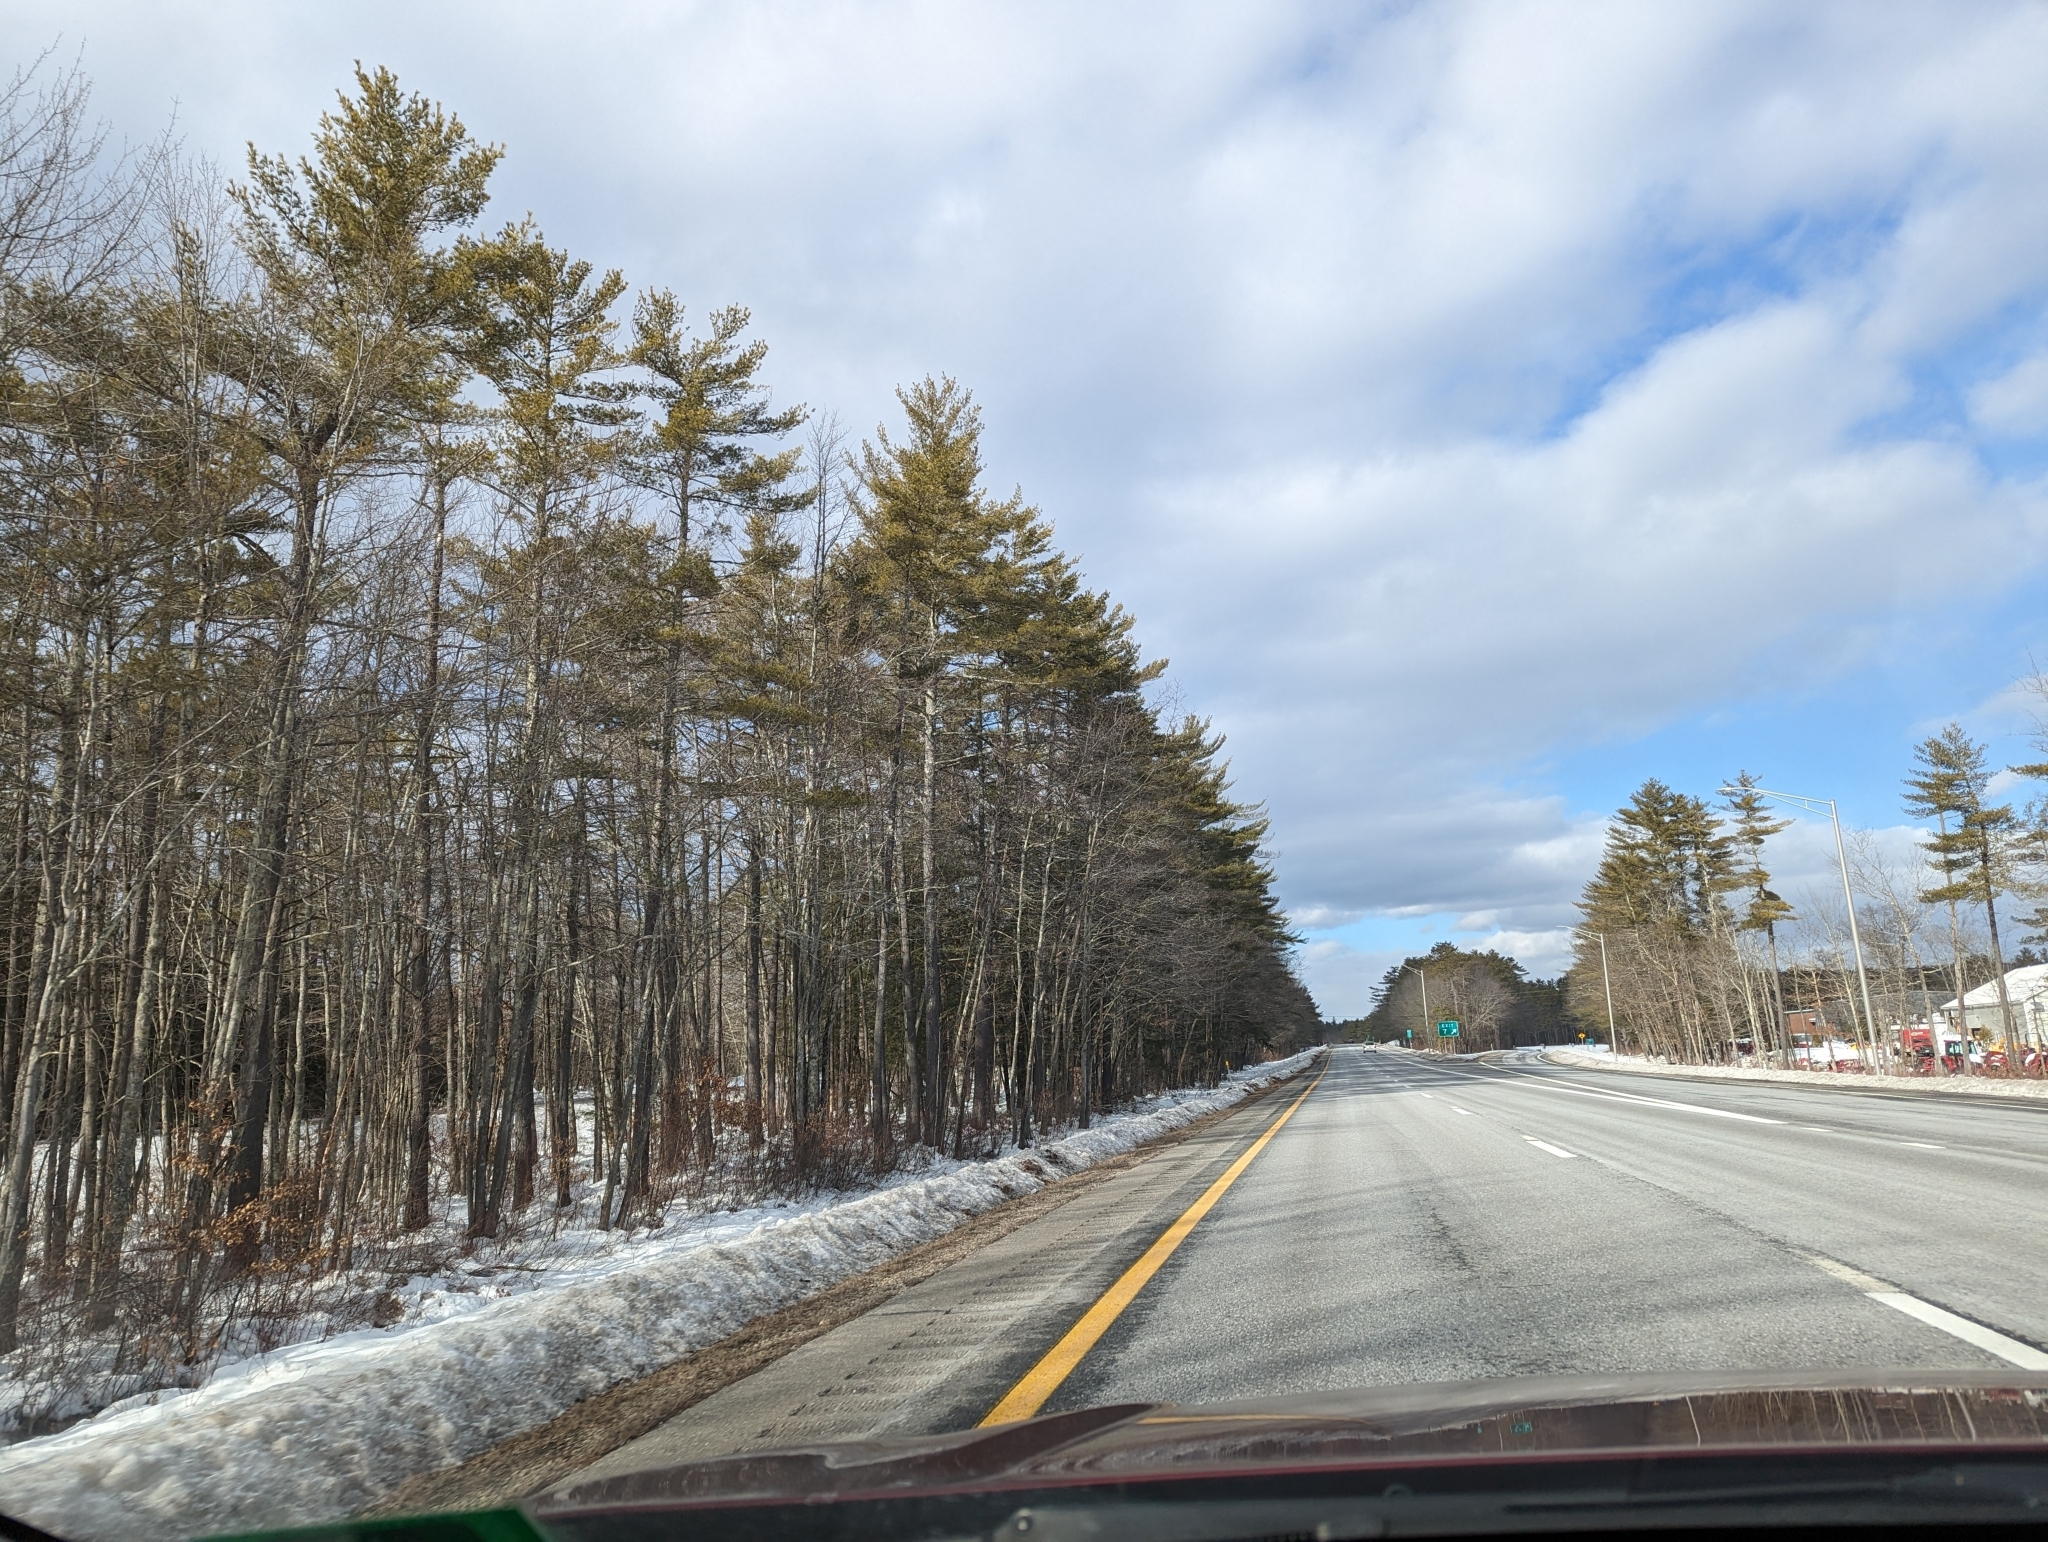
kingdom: Plantae
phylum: Tracheophyta
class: Pinopsida
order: Pinales
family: Pinaceae
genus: Pinus
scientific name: Pinus strobus
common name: Weymouth pine
